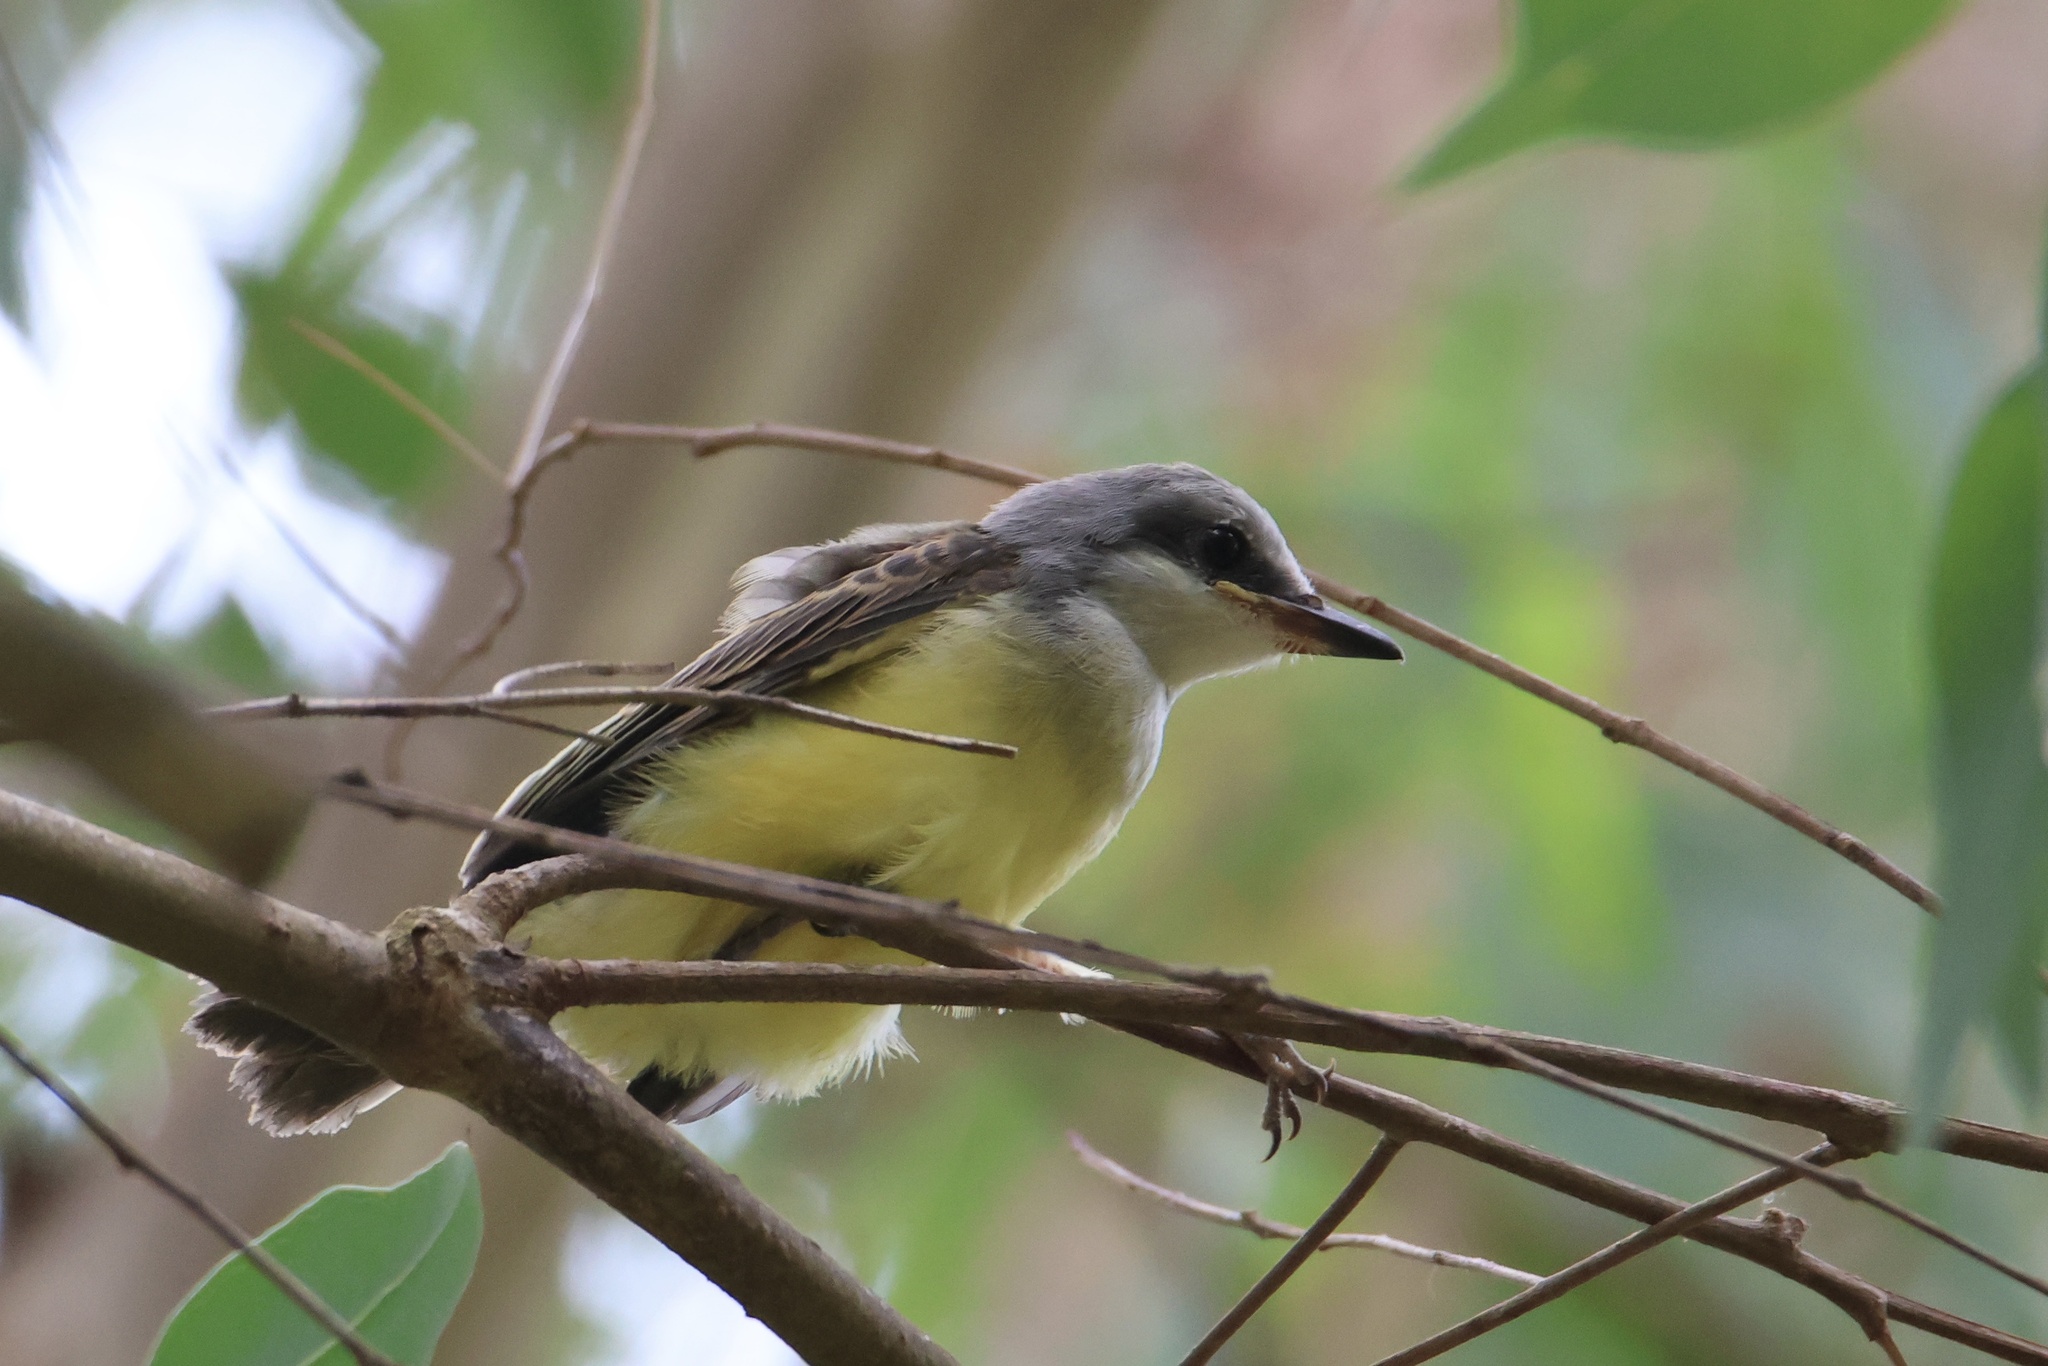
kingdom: Animalia
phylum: Chordata
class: Aves
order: Passeriformes
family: Tyrannidae
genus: Tyrannus
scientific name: Tyrannus melancholicus
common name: Tropical kingbird
